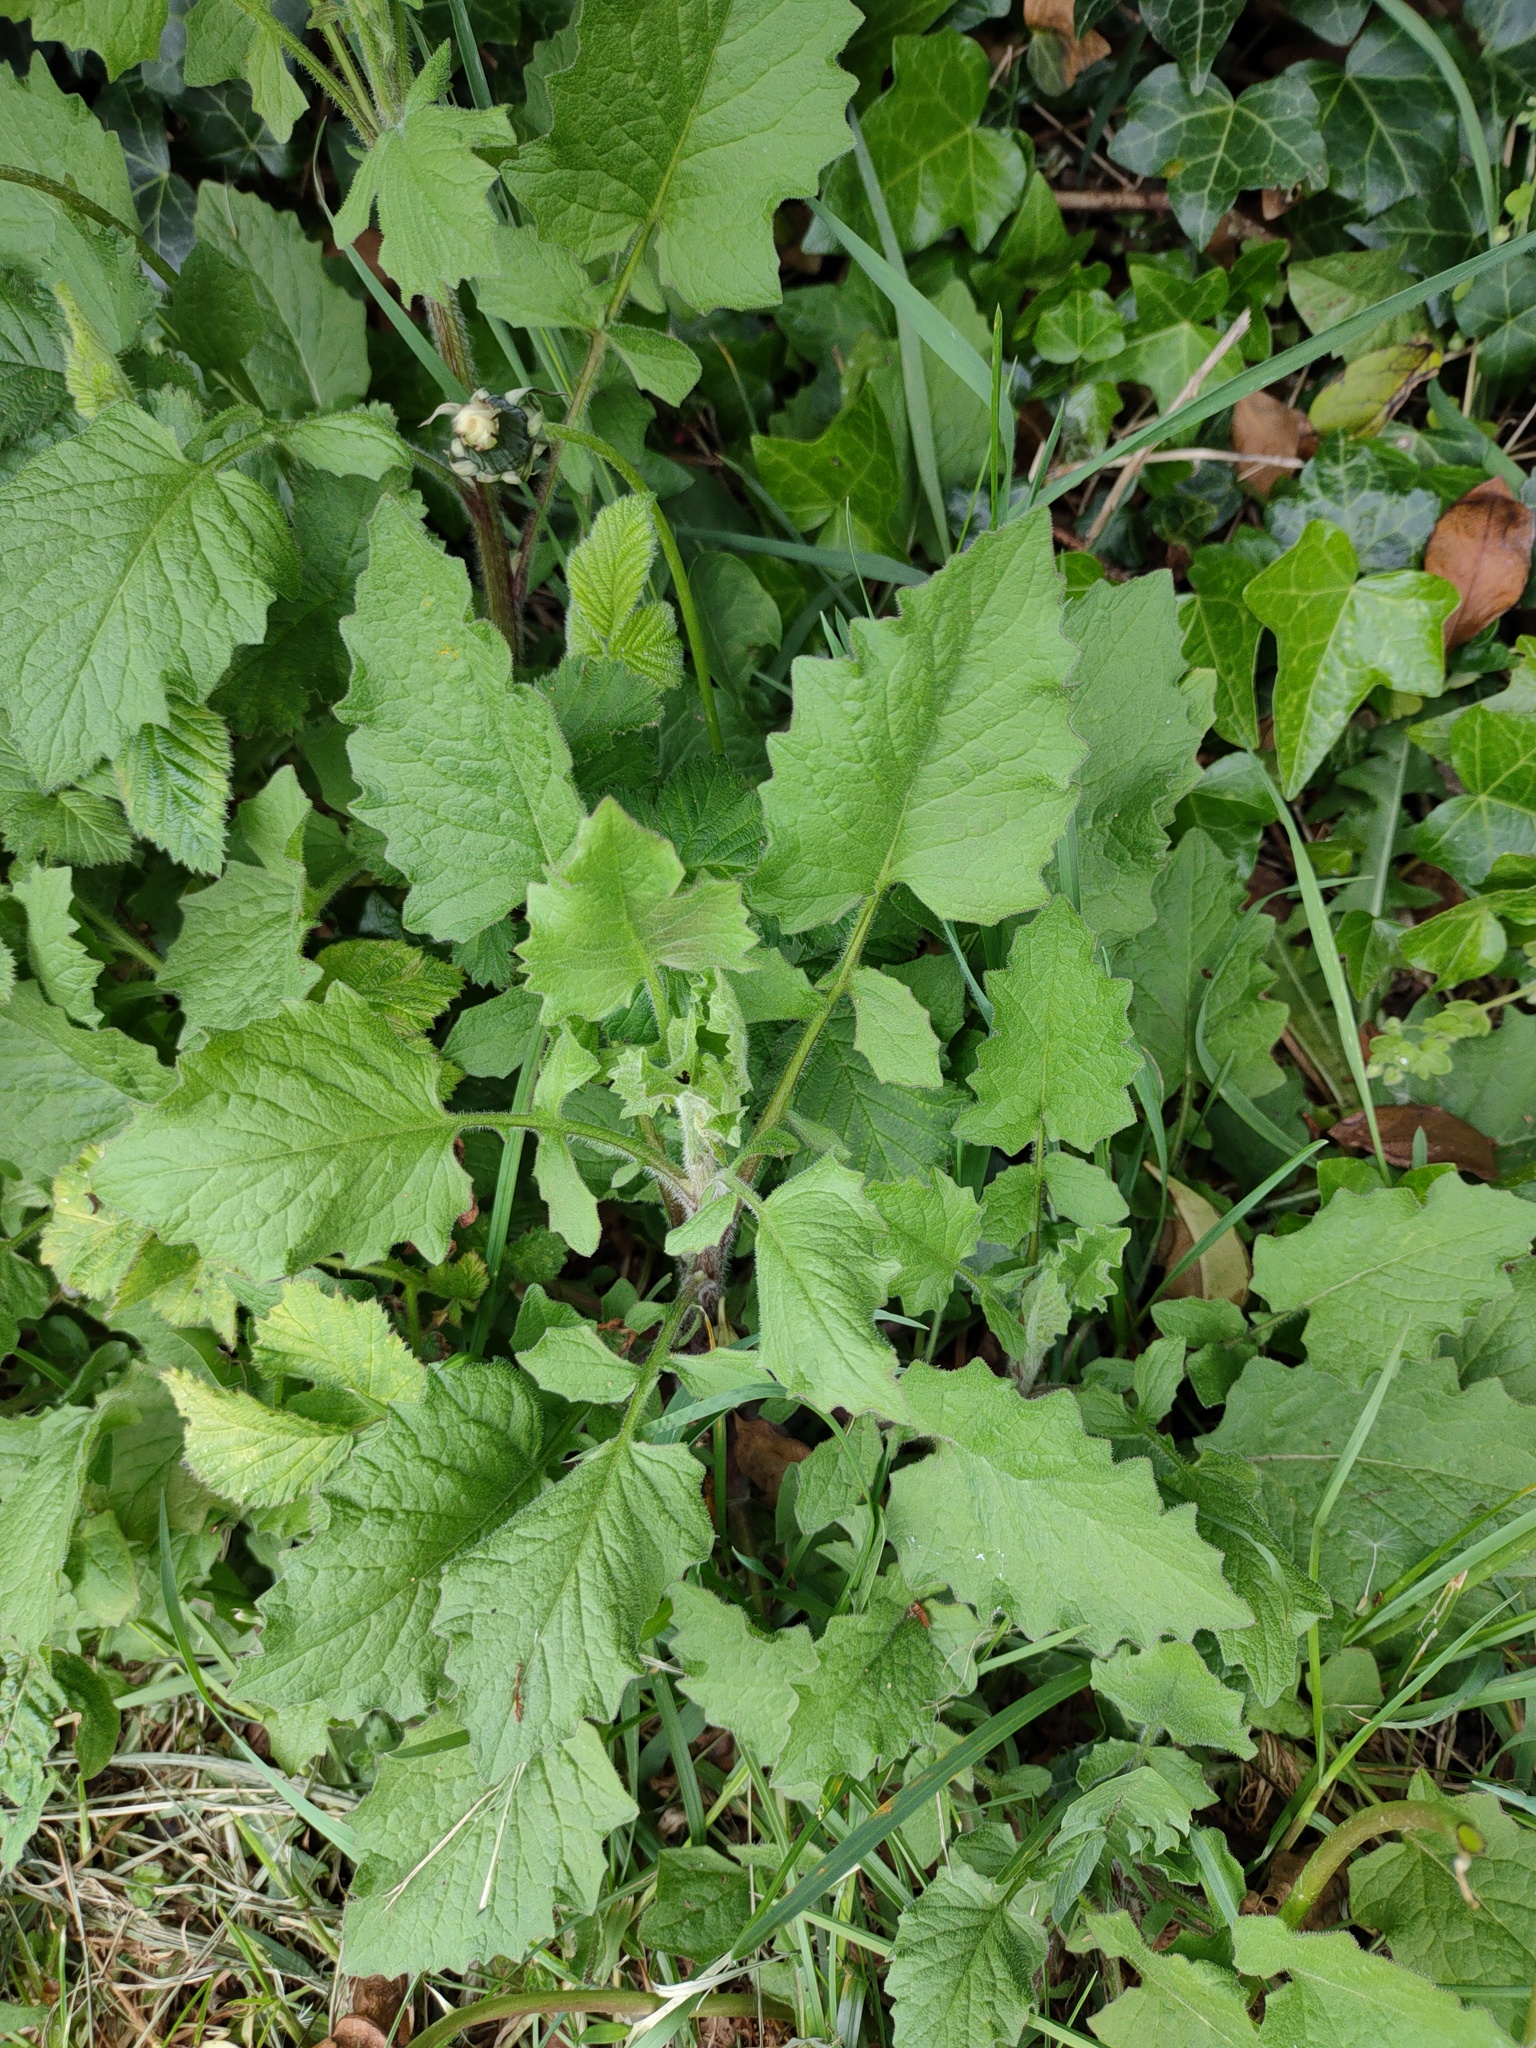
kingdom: Plantae
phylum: Tracheophyta
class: Magnoliopsida
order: Asterales
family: Asteraceae
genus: Lapsana
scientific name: Lapsana communis
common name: Nipplewort
